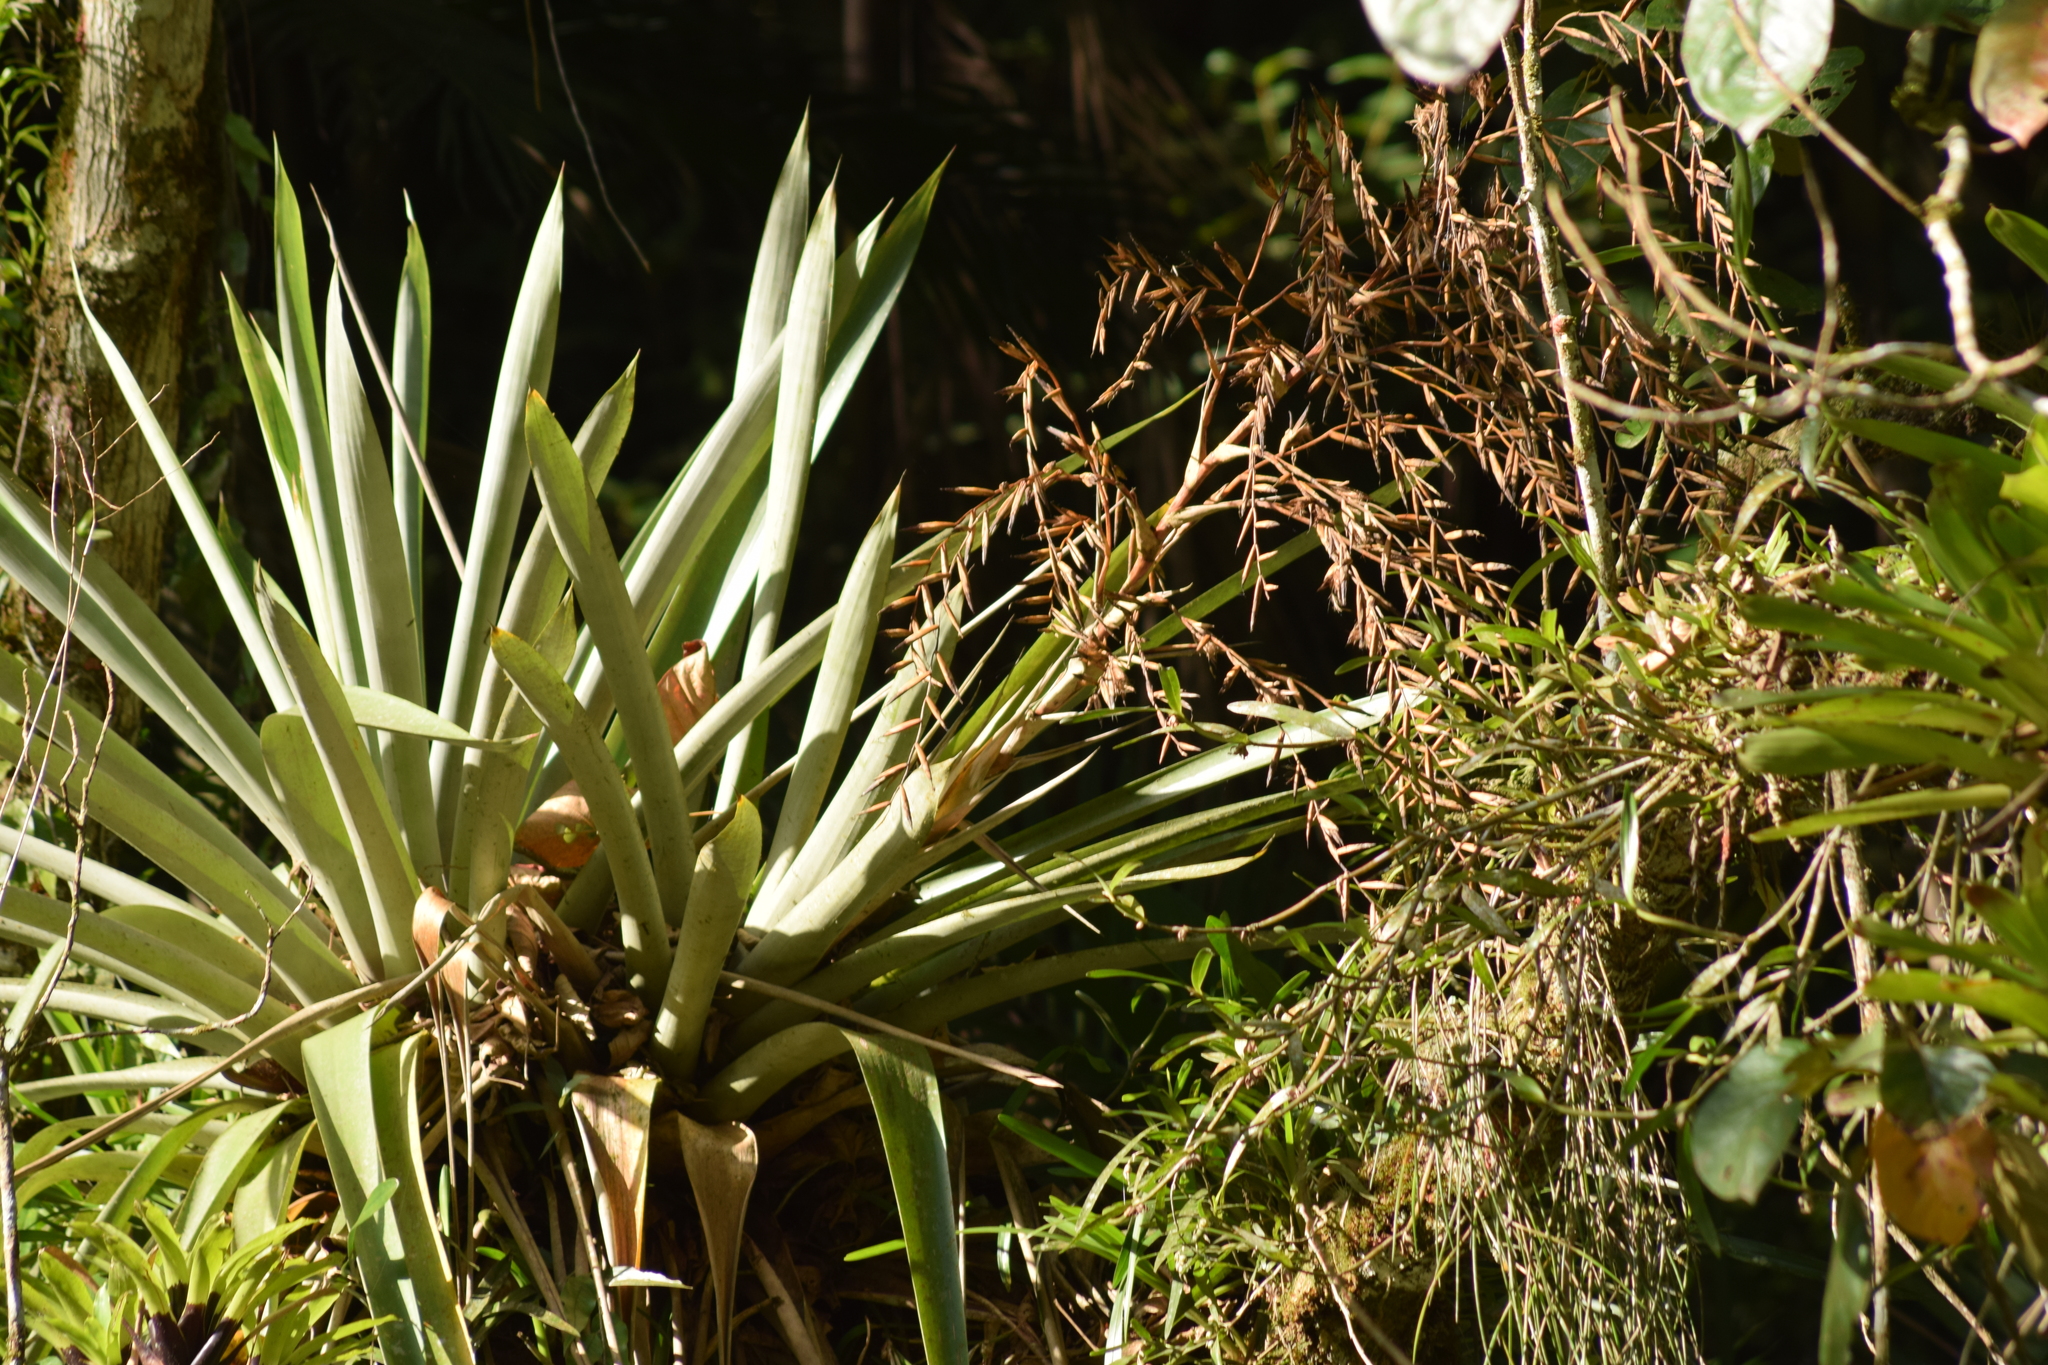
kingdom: Plantae
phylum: Tracheophyta
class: Liliopsida
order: Poales
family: Bromeliaceae
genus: Vriesea
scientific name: Vriesea paratiensis
